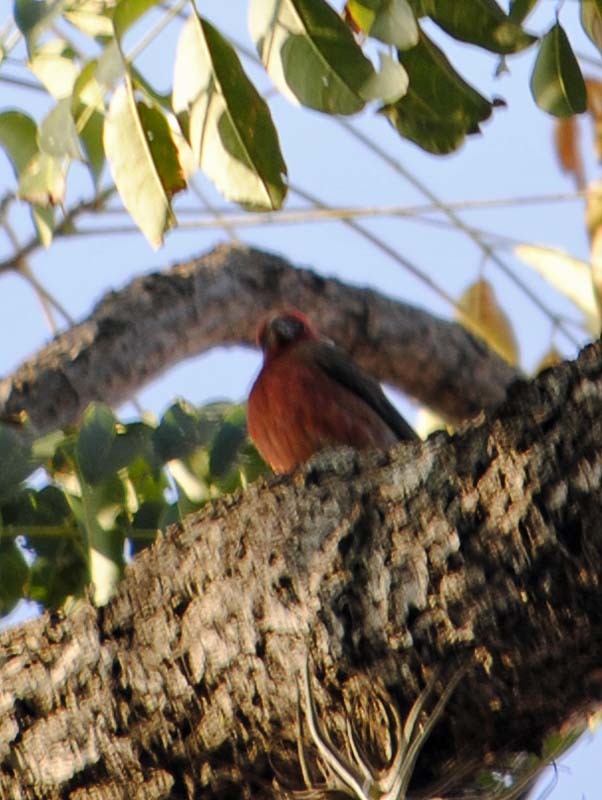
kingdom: Animalia
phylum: Chordata
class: Aves
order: Passeriformes
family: Fringillidae
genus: Haemorhous
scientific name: Haemorhous mexicanus
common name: House finch
